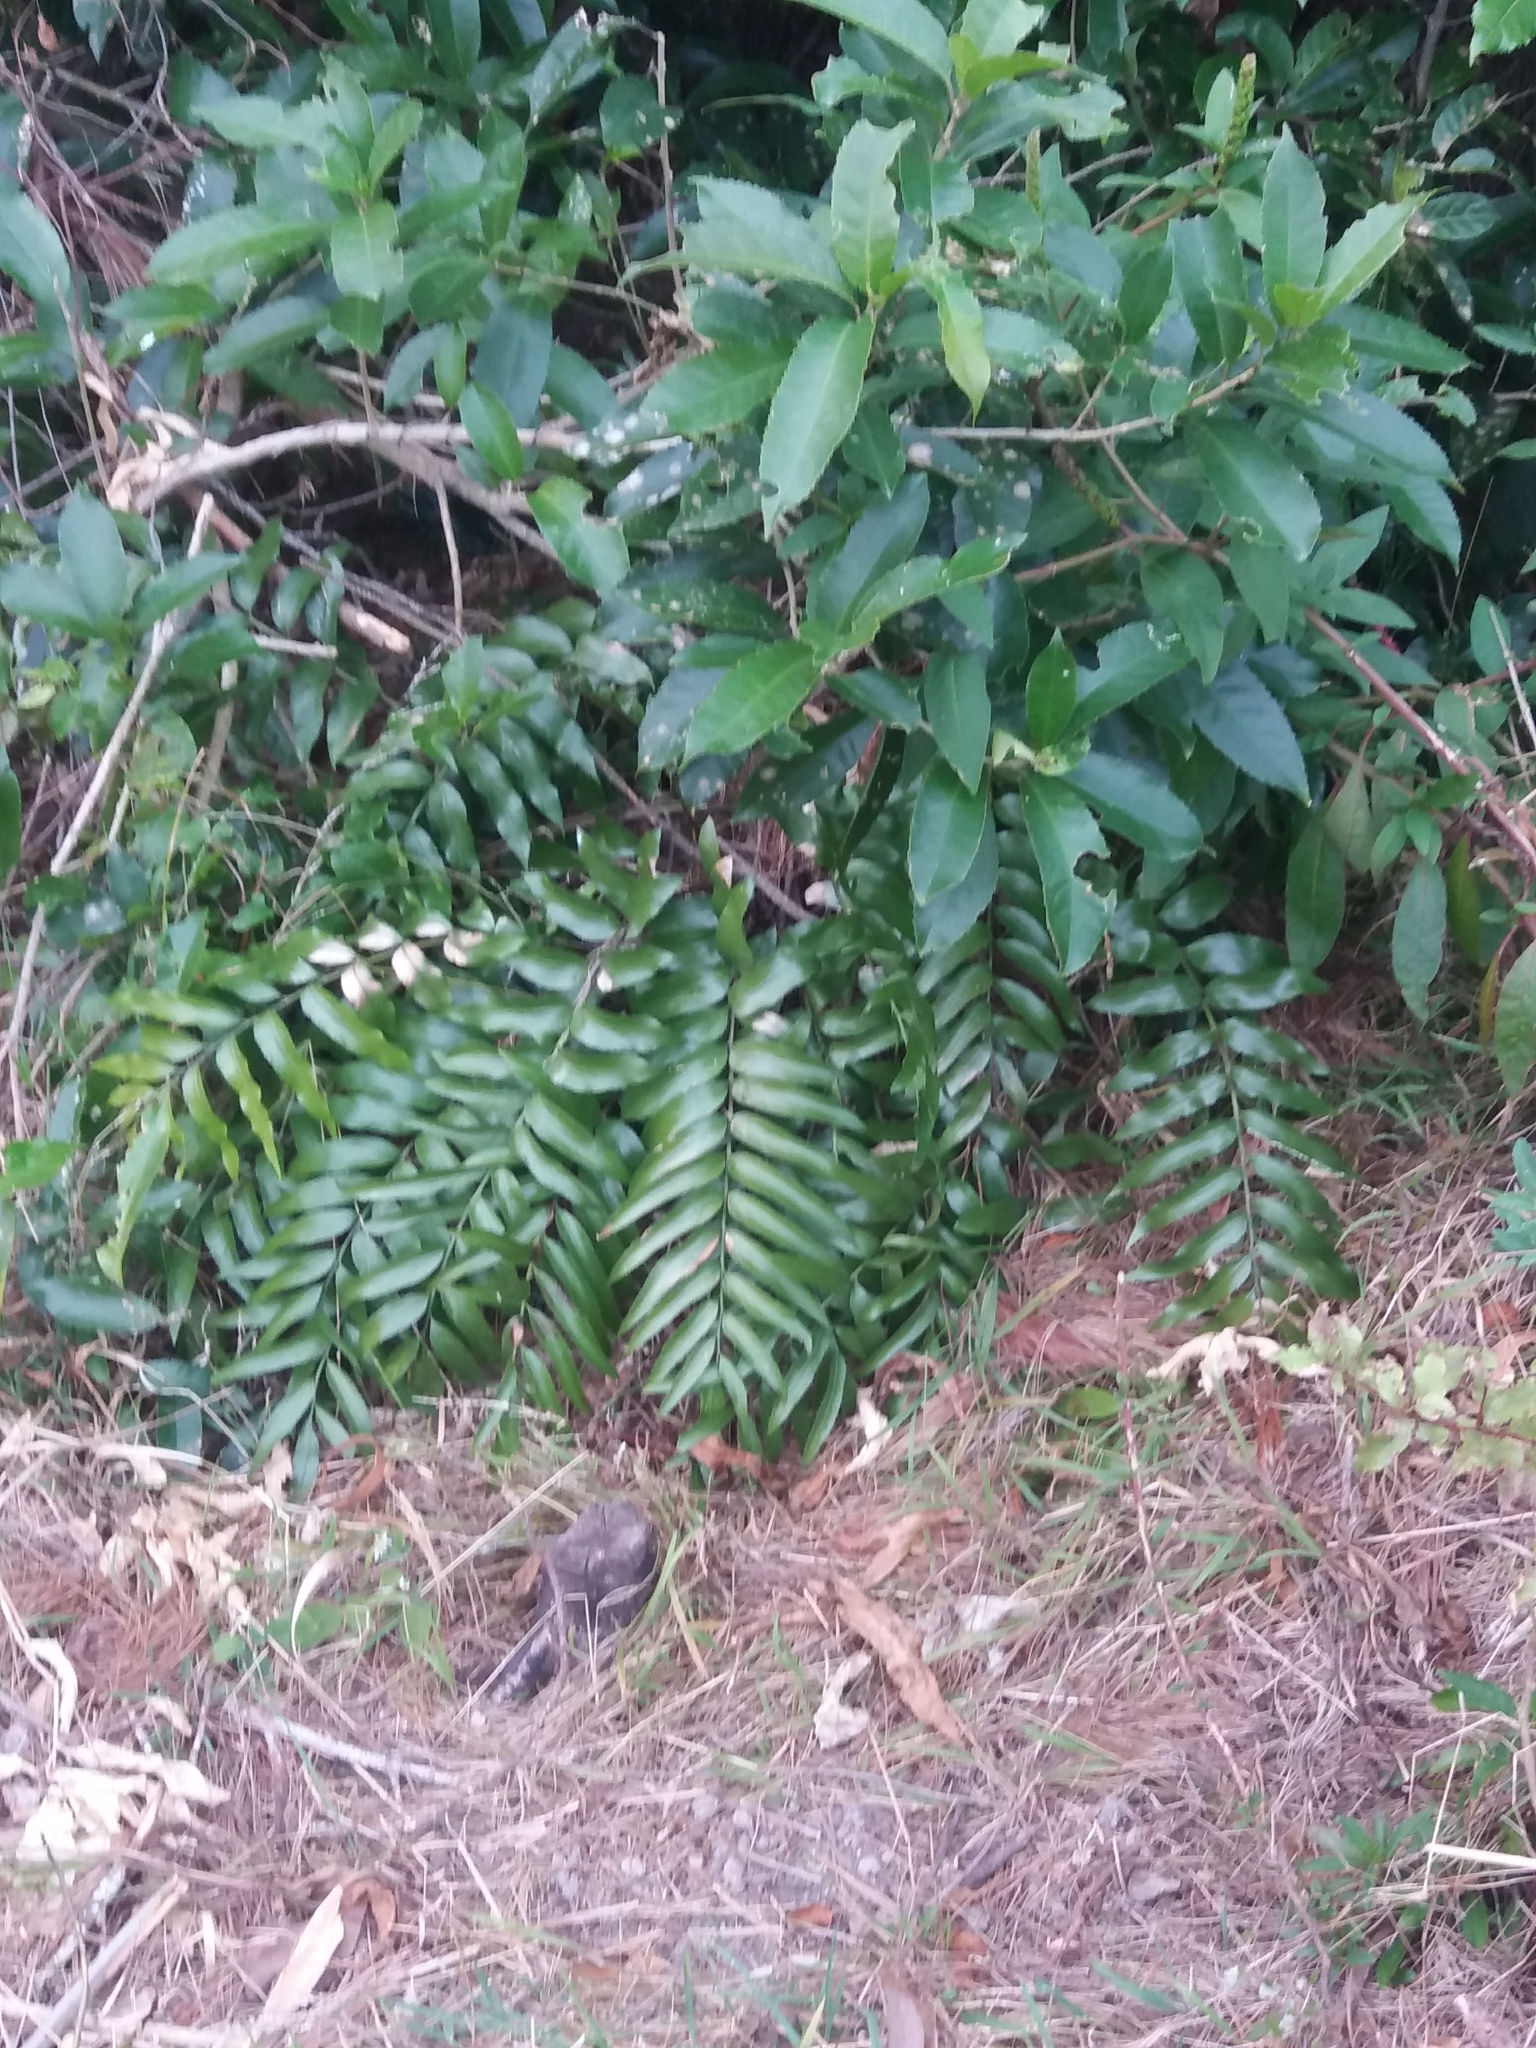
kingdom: Plantae
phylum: Tracheophyta
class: Polypodiopsida
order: Polypodiales
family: Aspleniaceae
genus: Asplenium
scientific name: Asplenium oblongifolium
